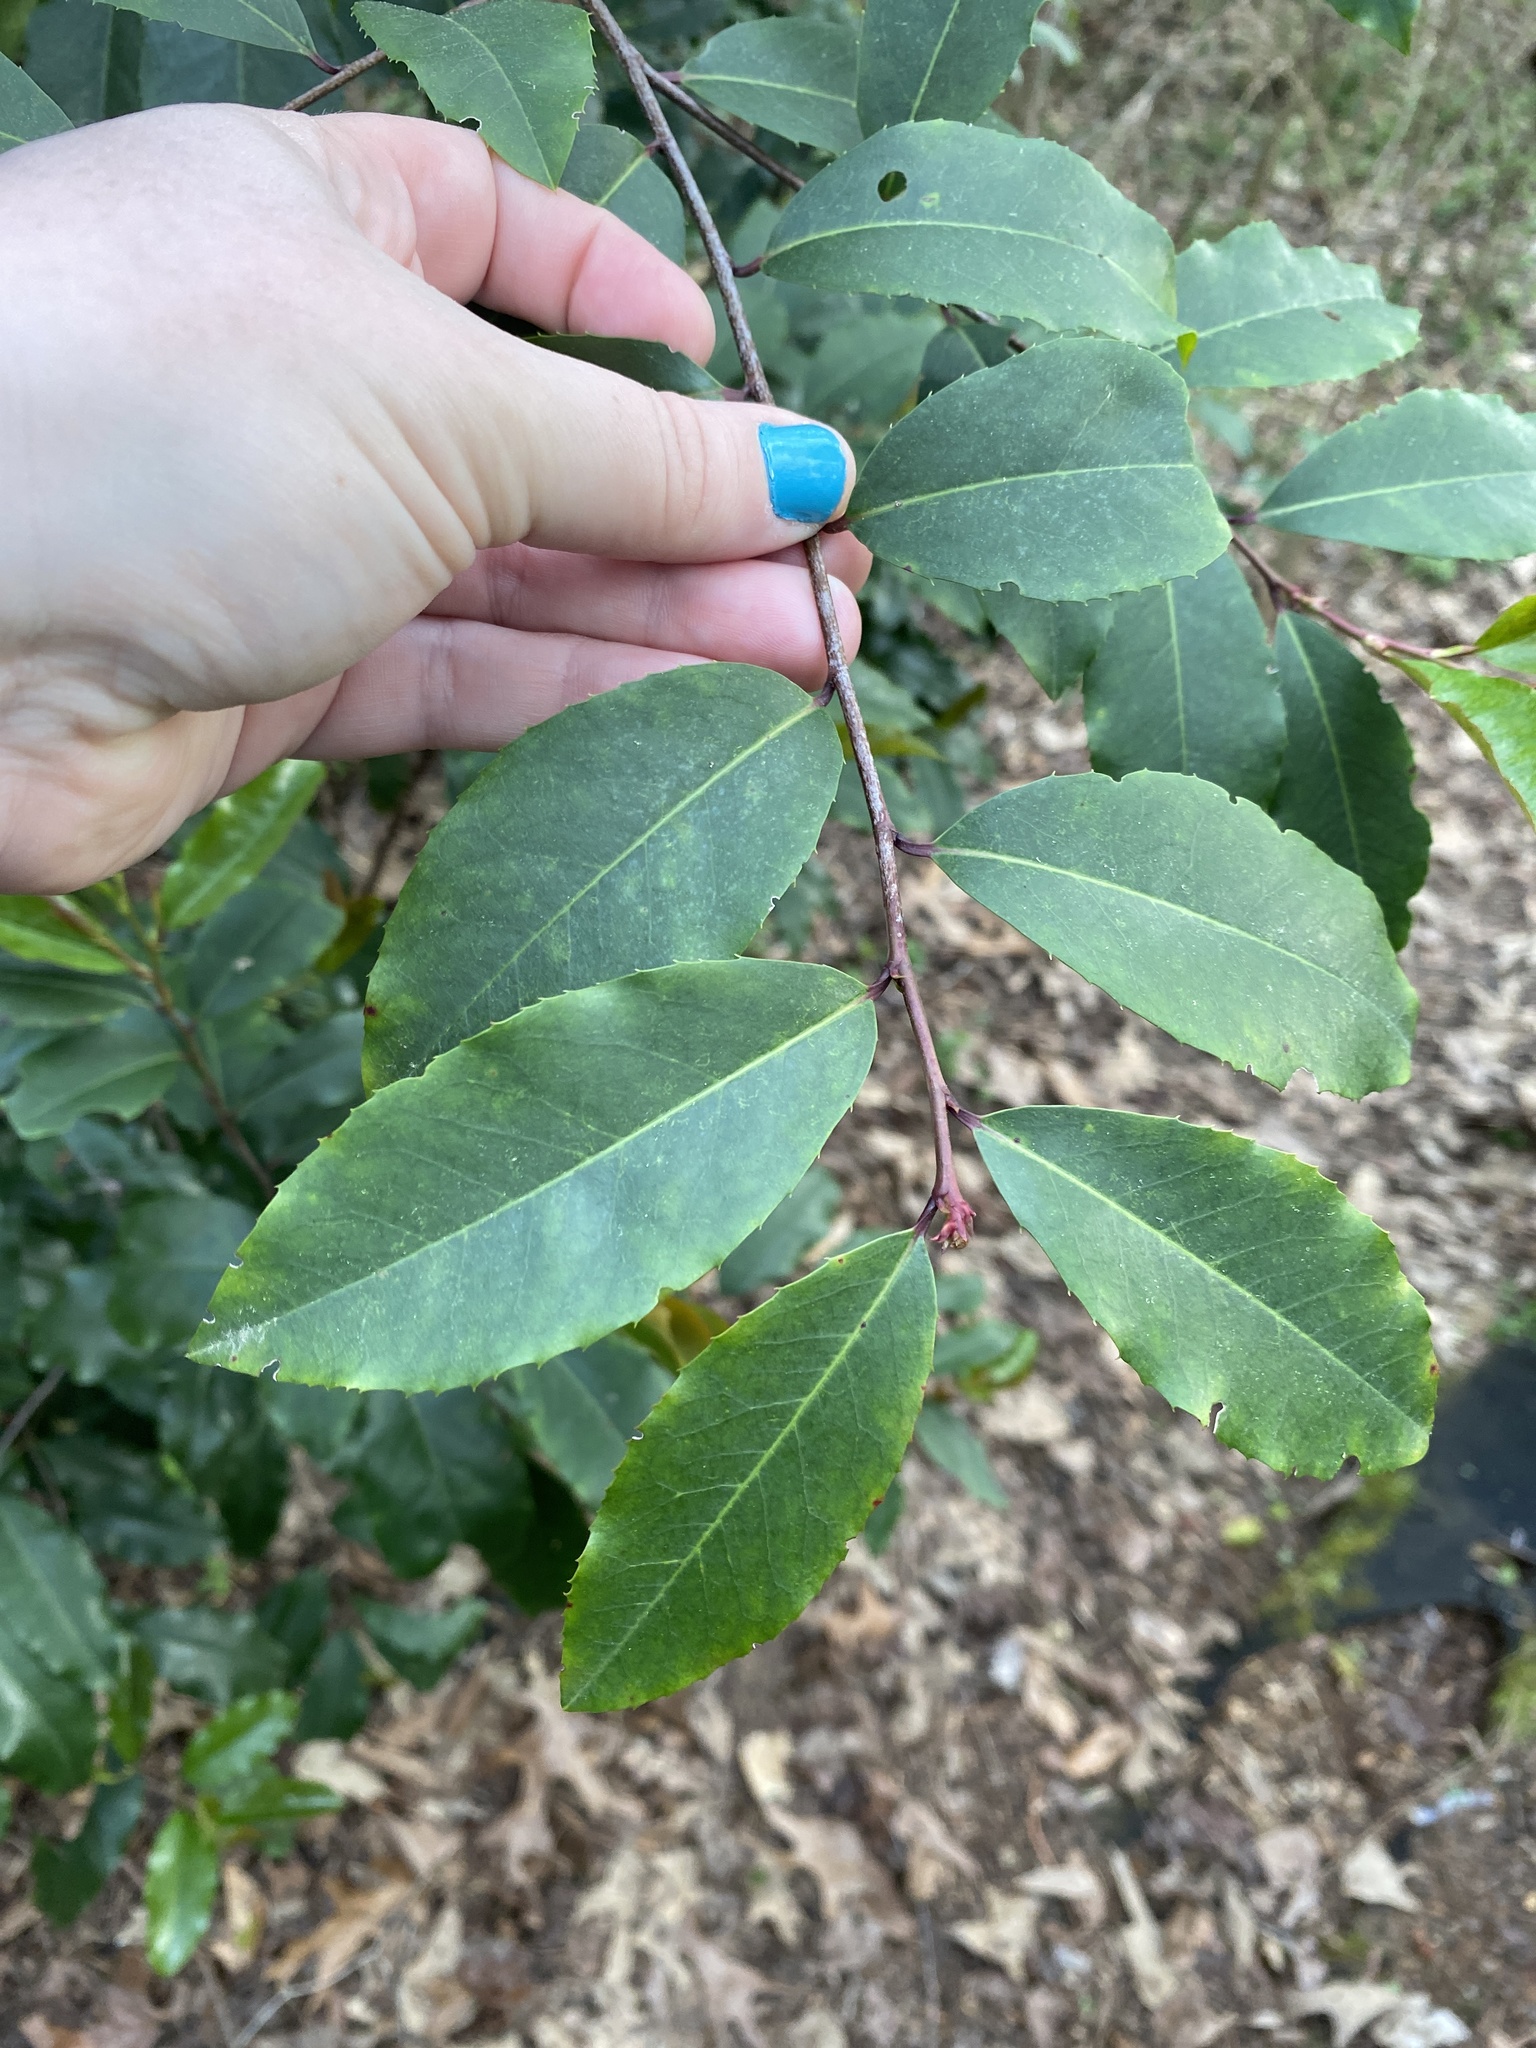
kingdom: Plantae
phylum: Tracheophyta
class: Magnoliopsida
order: Rosales
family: Rosaceae
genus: Prunus
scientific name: Prunus caroliniana
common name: Carolina laurel cherry
